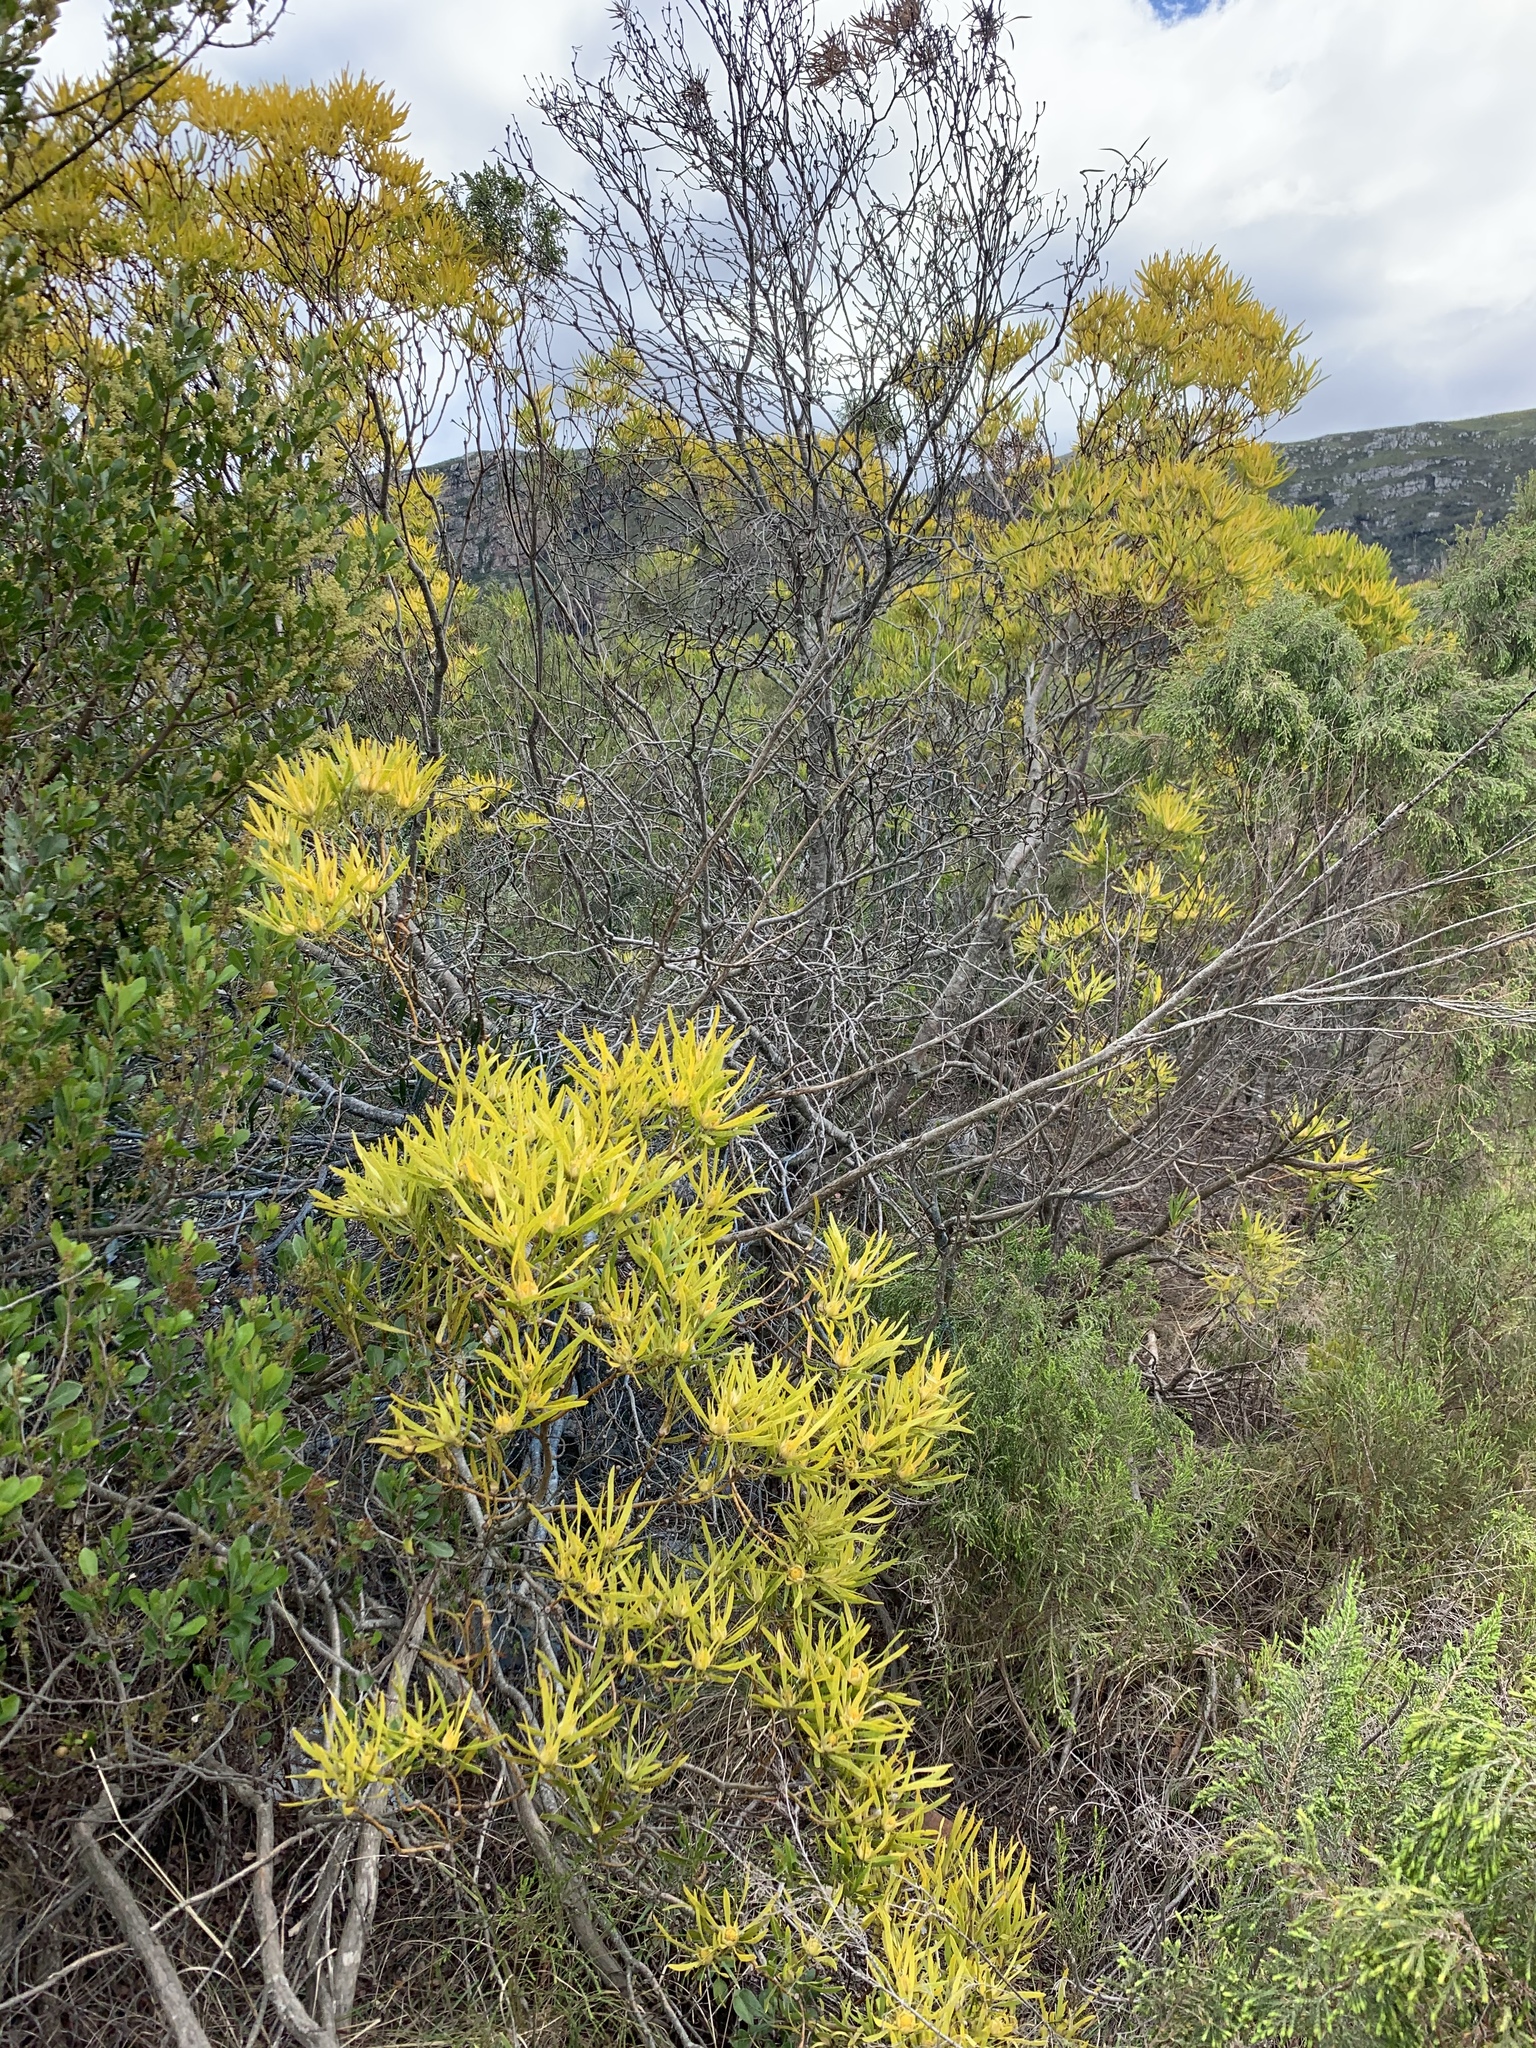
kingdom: Plantae
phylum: Tracheophyta
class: Magnoliopsida
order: Proteales
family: Proteaceae
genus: Leucadendron
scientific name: Leucadendron eucalyptifolium
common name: Gum-leaved conebush
